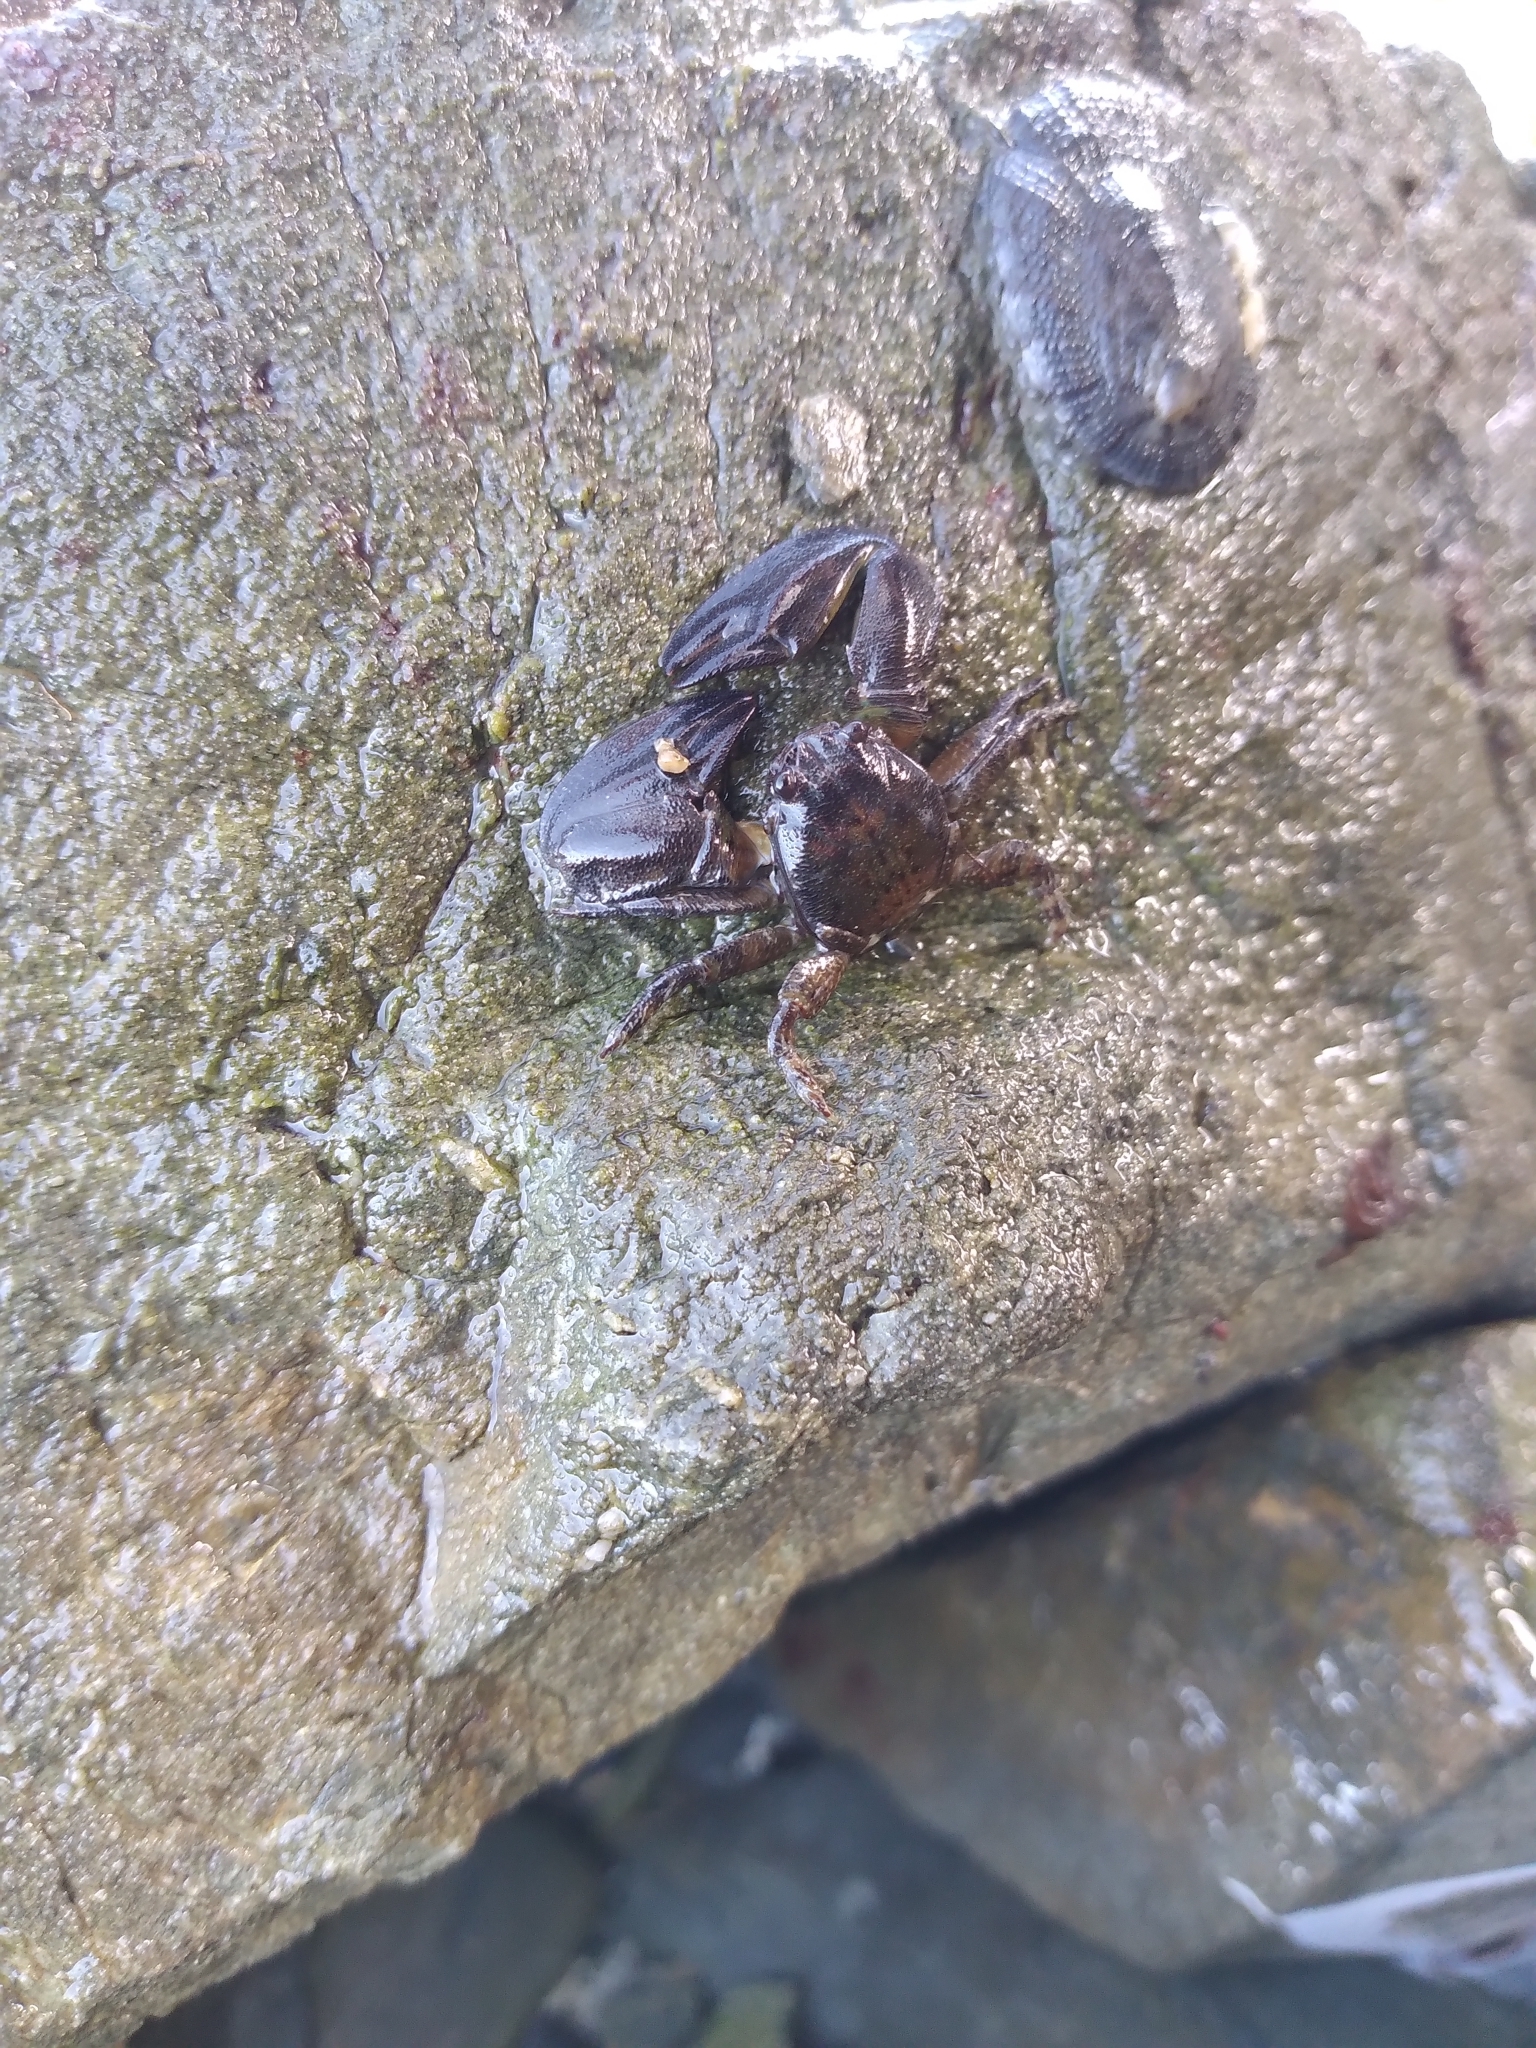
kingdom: Animalia
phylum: Arthropoda
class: Malacostraca
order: Decapoda
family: Porcellanidae
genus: Petrolisthes
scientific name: Petrolisthes elongatus
